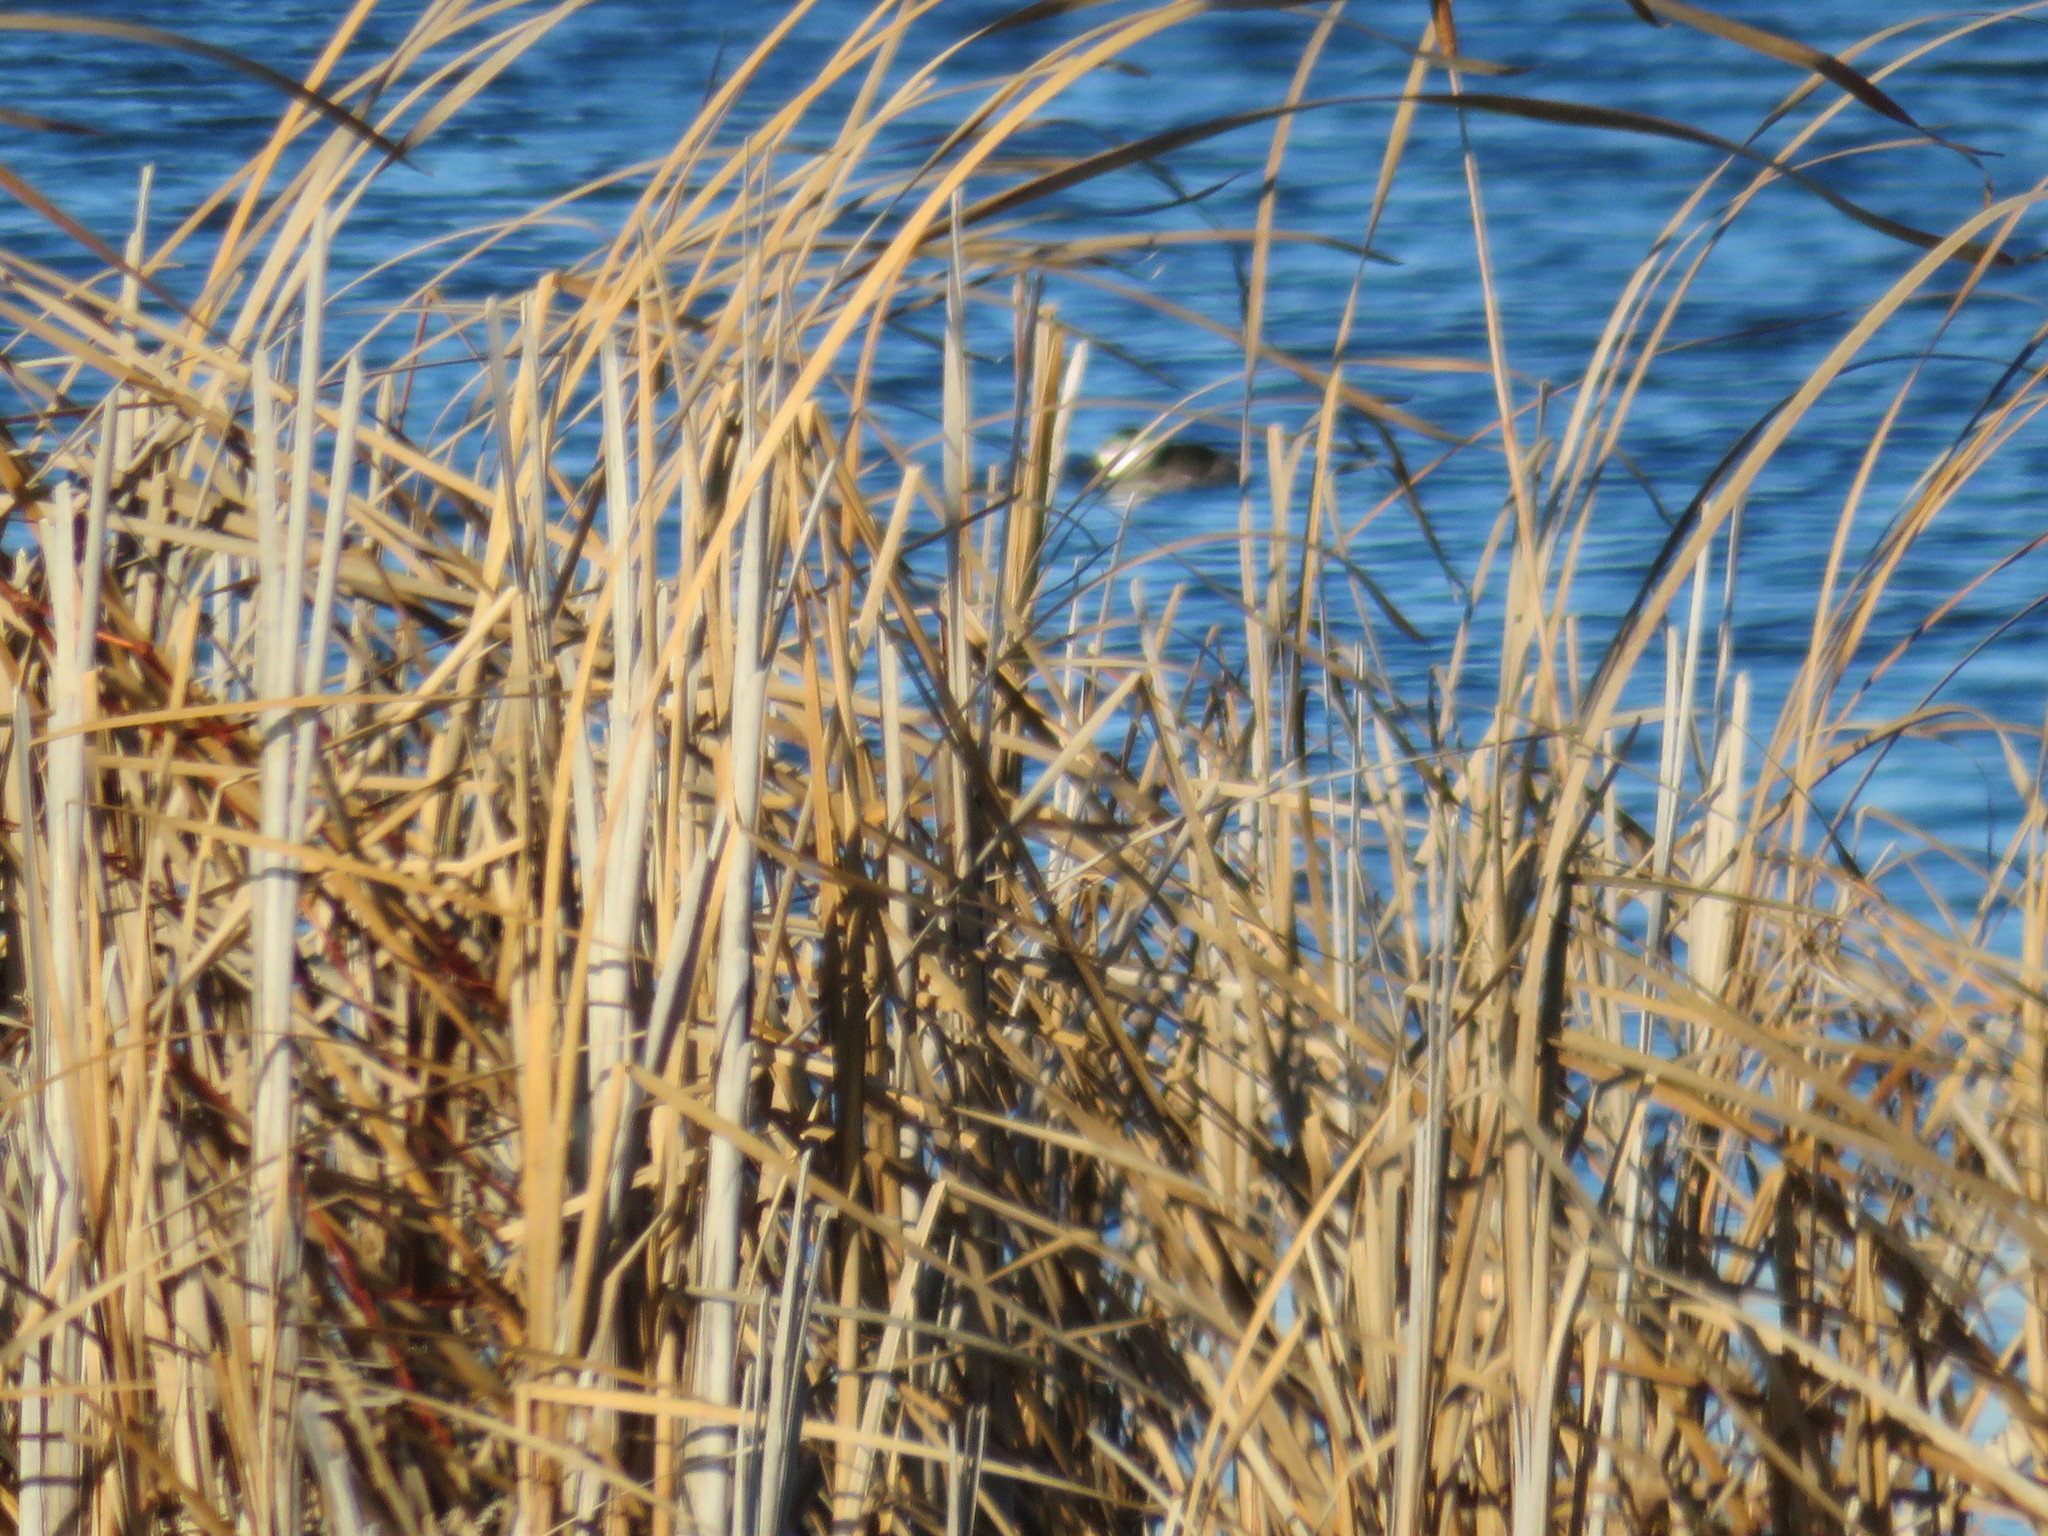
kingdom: Animalia
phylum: Chordata
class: Aves
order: Anseriformes
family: Anatidae
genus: Oxyura
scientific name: Oxyura jamaicensis
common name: Ruddy duck
